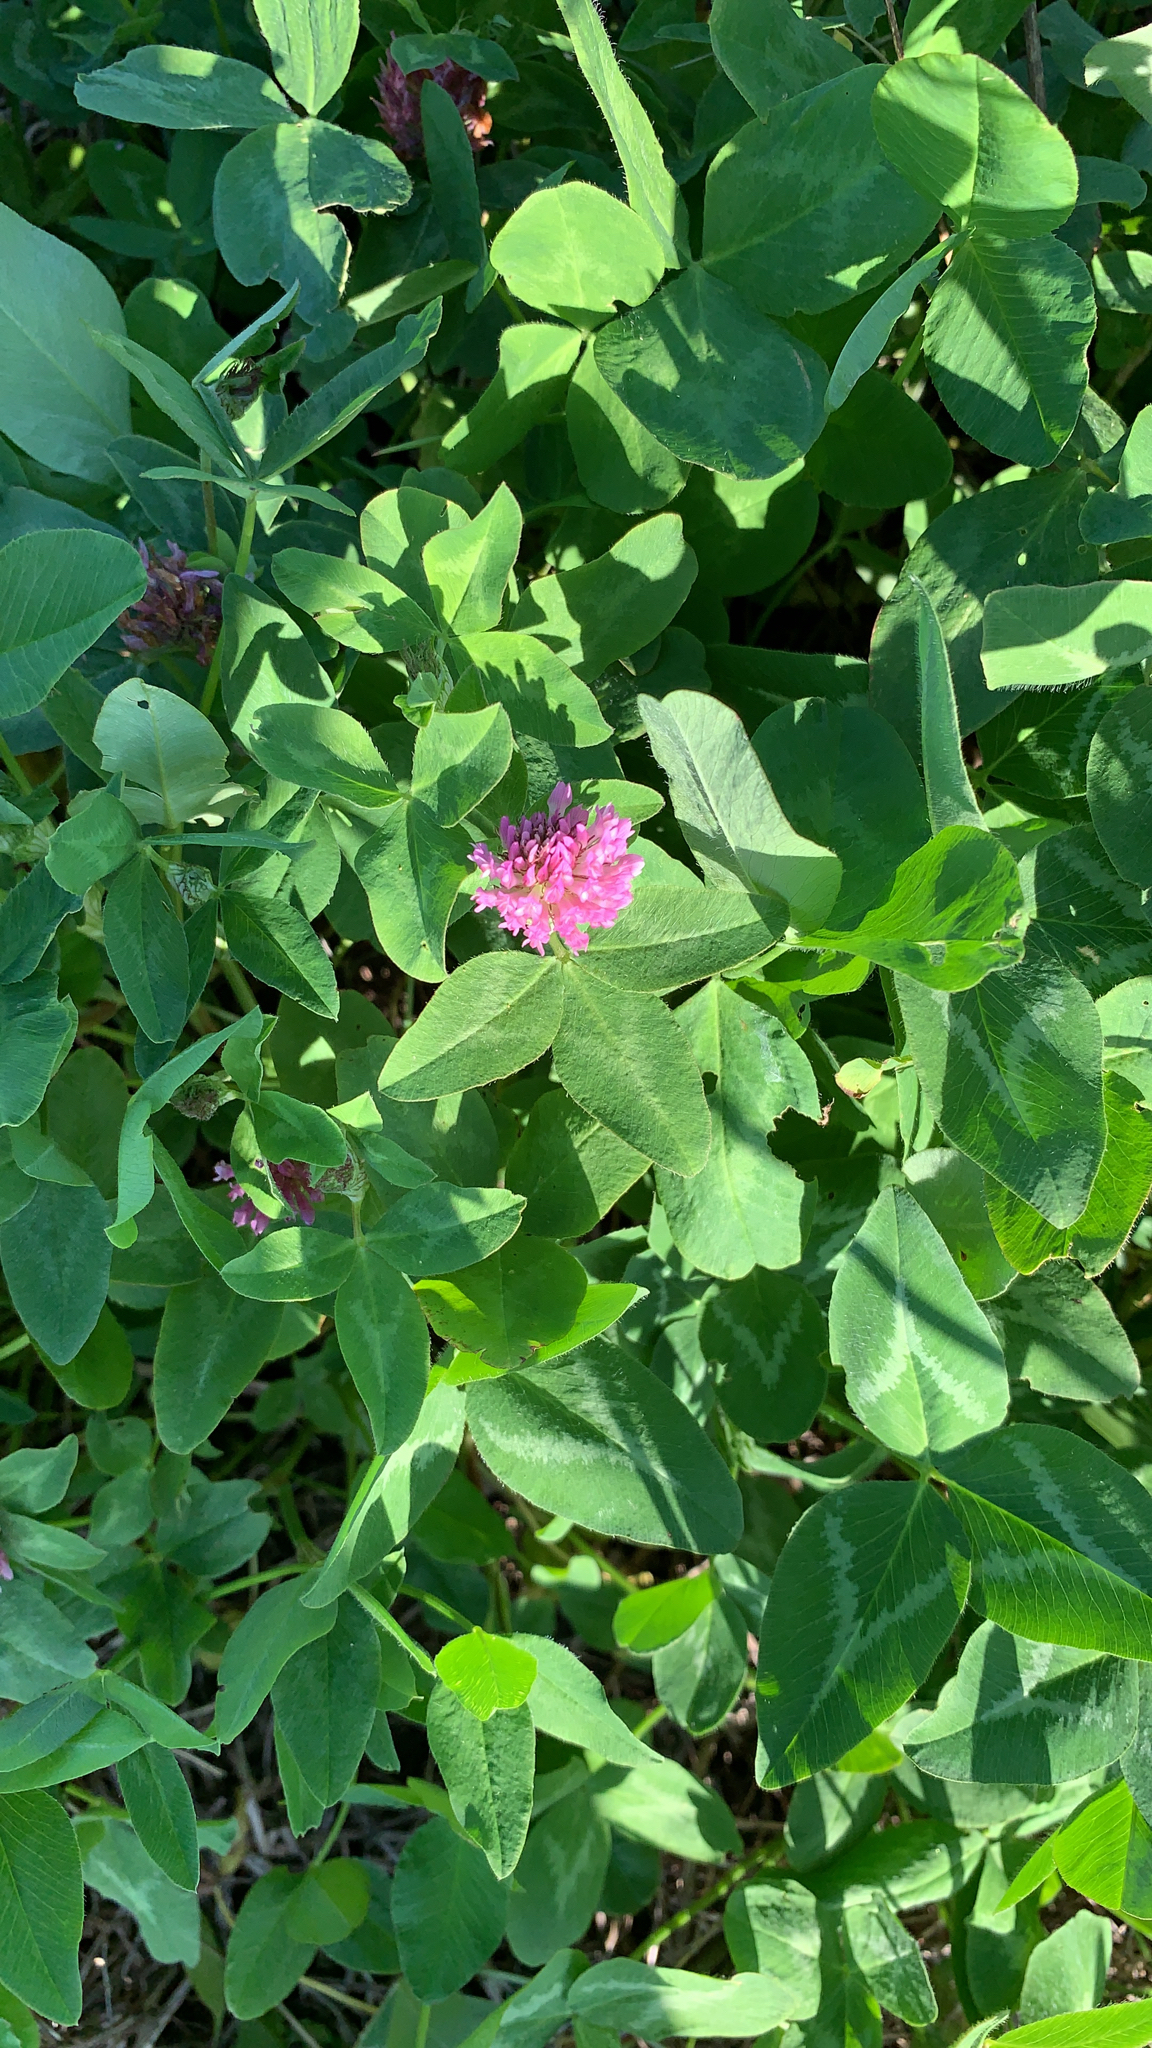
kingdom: Plantae
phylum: Tracheophyta
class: Magnoliopsida
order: Fabales
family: Fabaceae
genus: Trifolium
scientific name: Trifolium pratense
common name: Red clover
